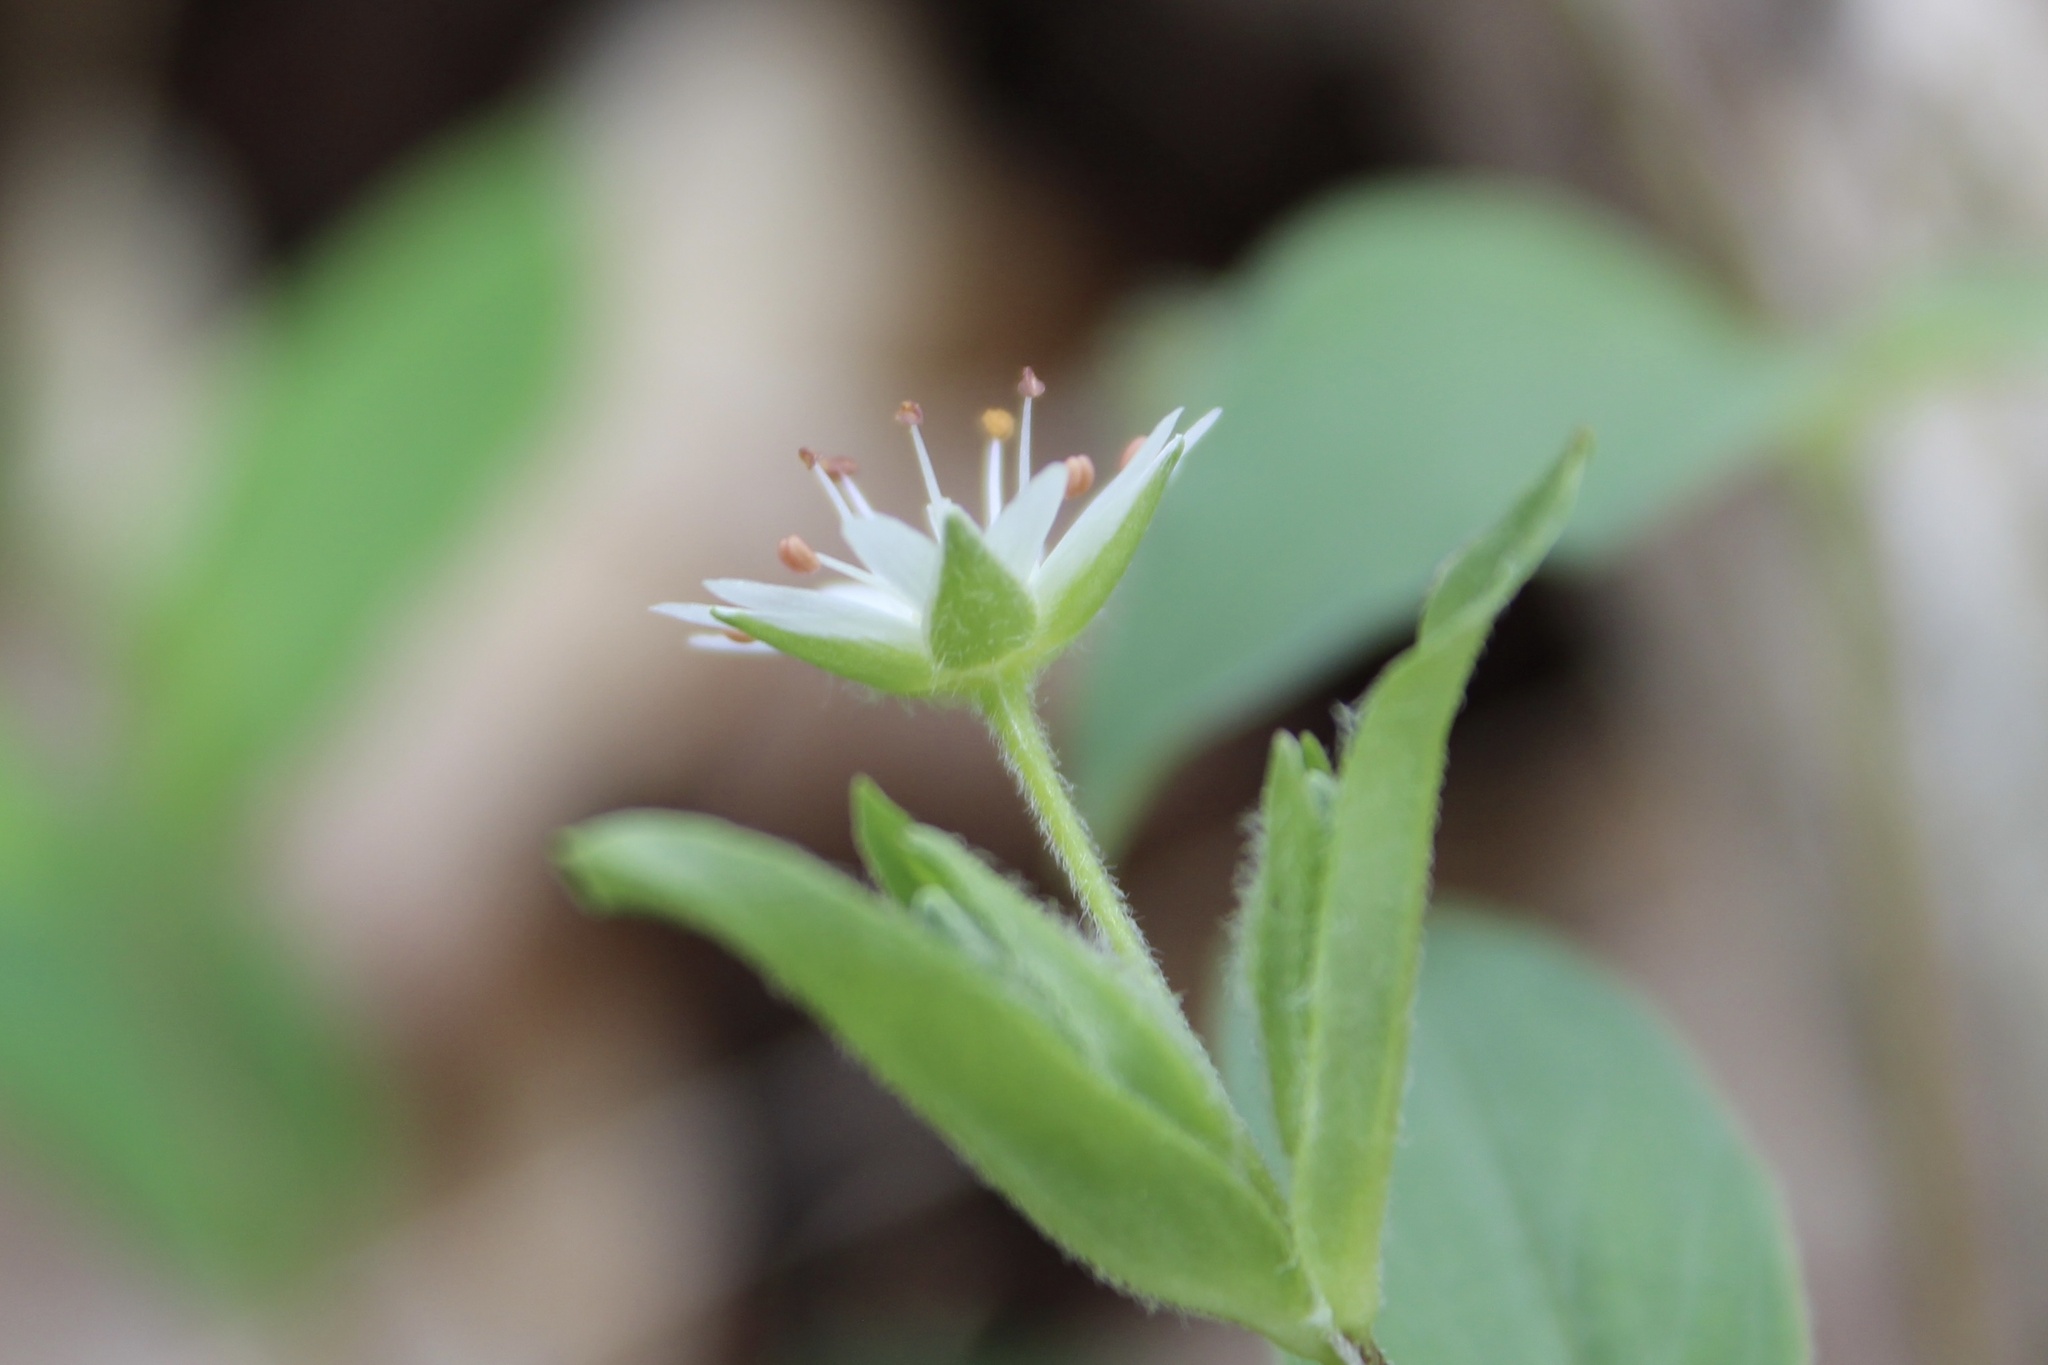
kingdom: Plantae
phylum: Tracheophyta
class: Magnoliopsida
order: Caryophyllales
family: Caryophyllaceae
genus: Stellaria
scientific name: Stellaria pubera
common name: Star chickweed
